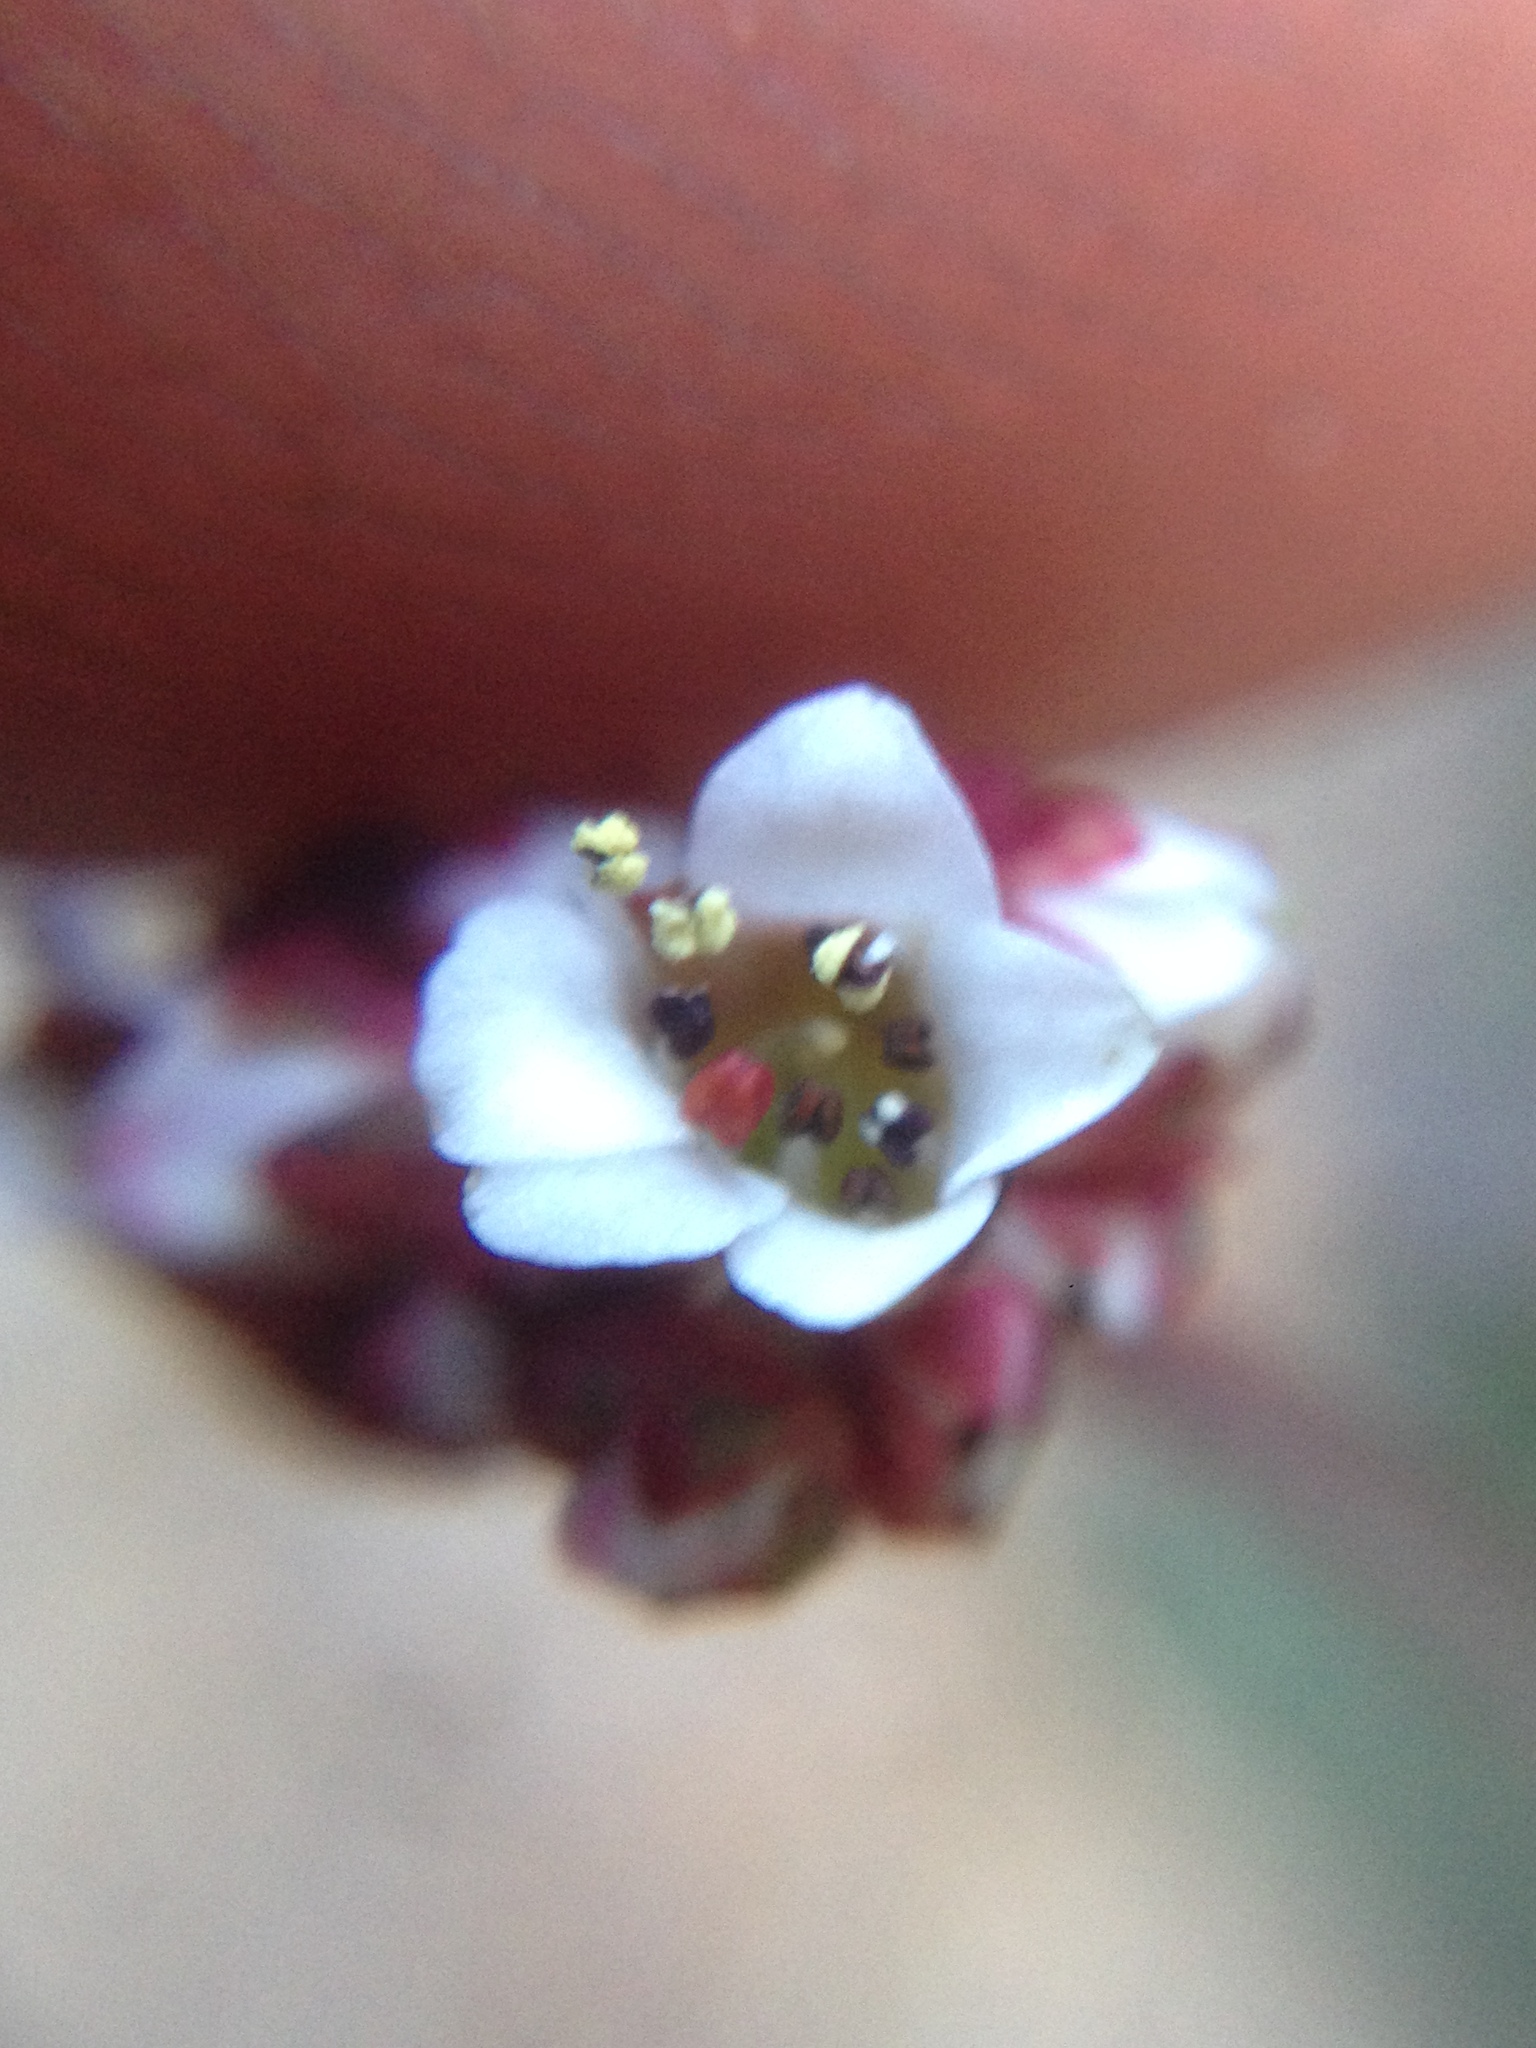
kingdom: Plantae
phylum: Tracheophyta
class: Magnoliopsida
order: Saxifragales
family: Saxifragaceae
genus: Micranthes
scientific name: Micranthes eriophora
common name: Redfuzz saxifrage
